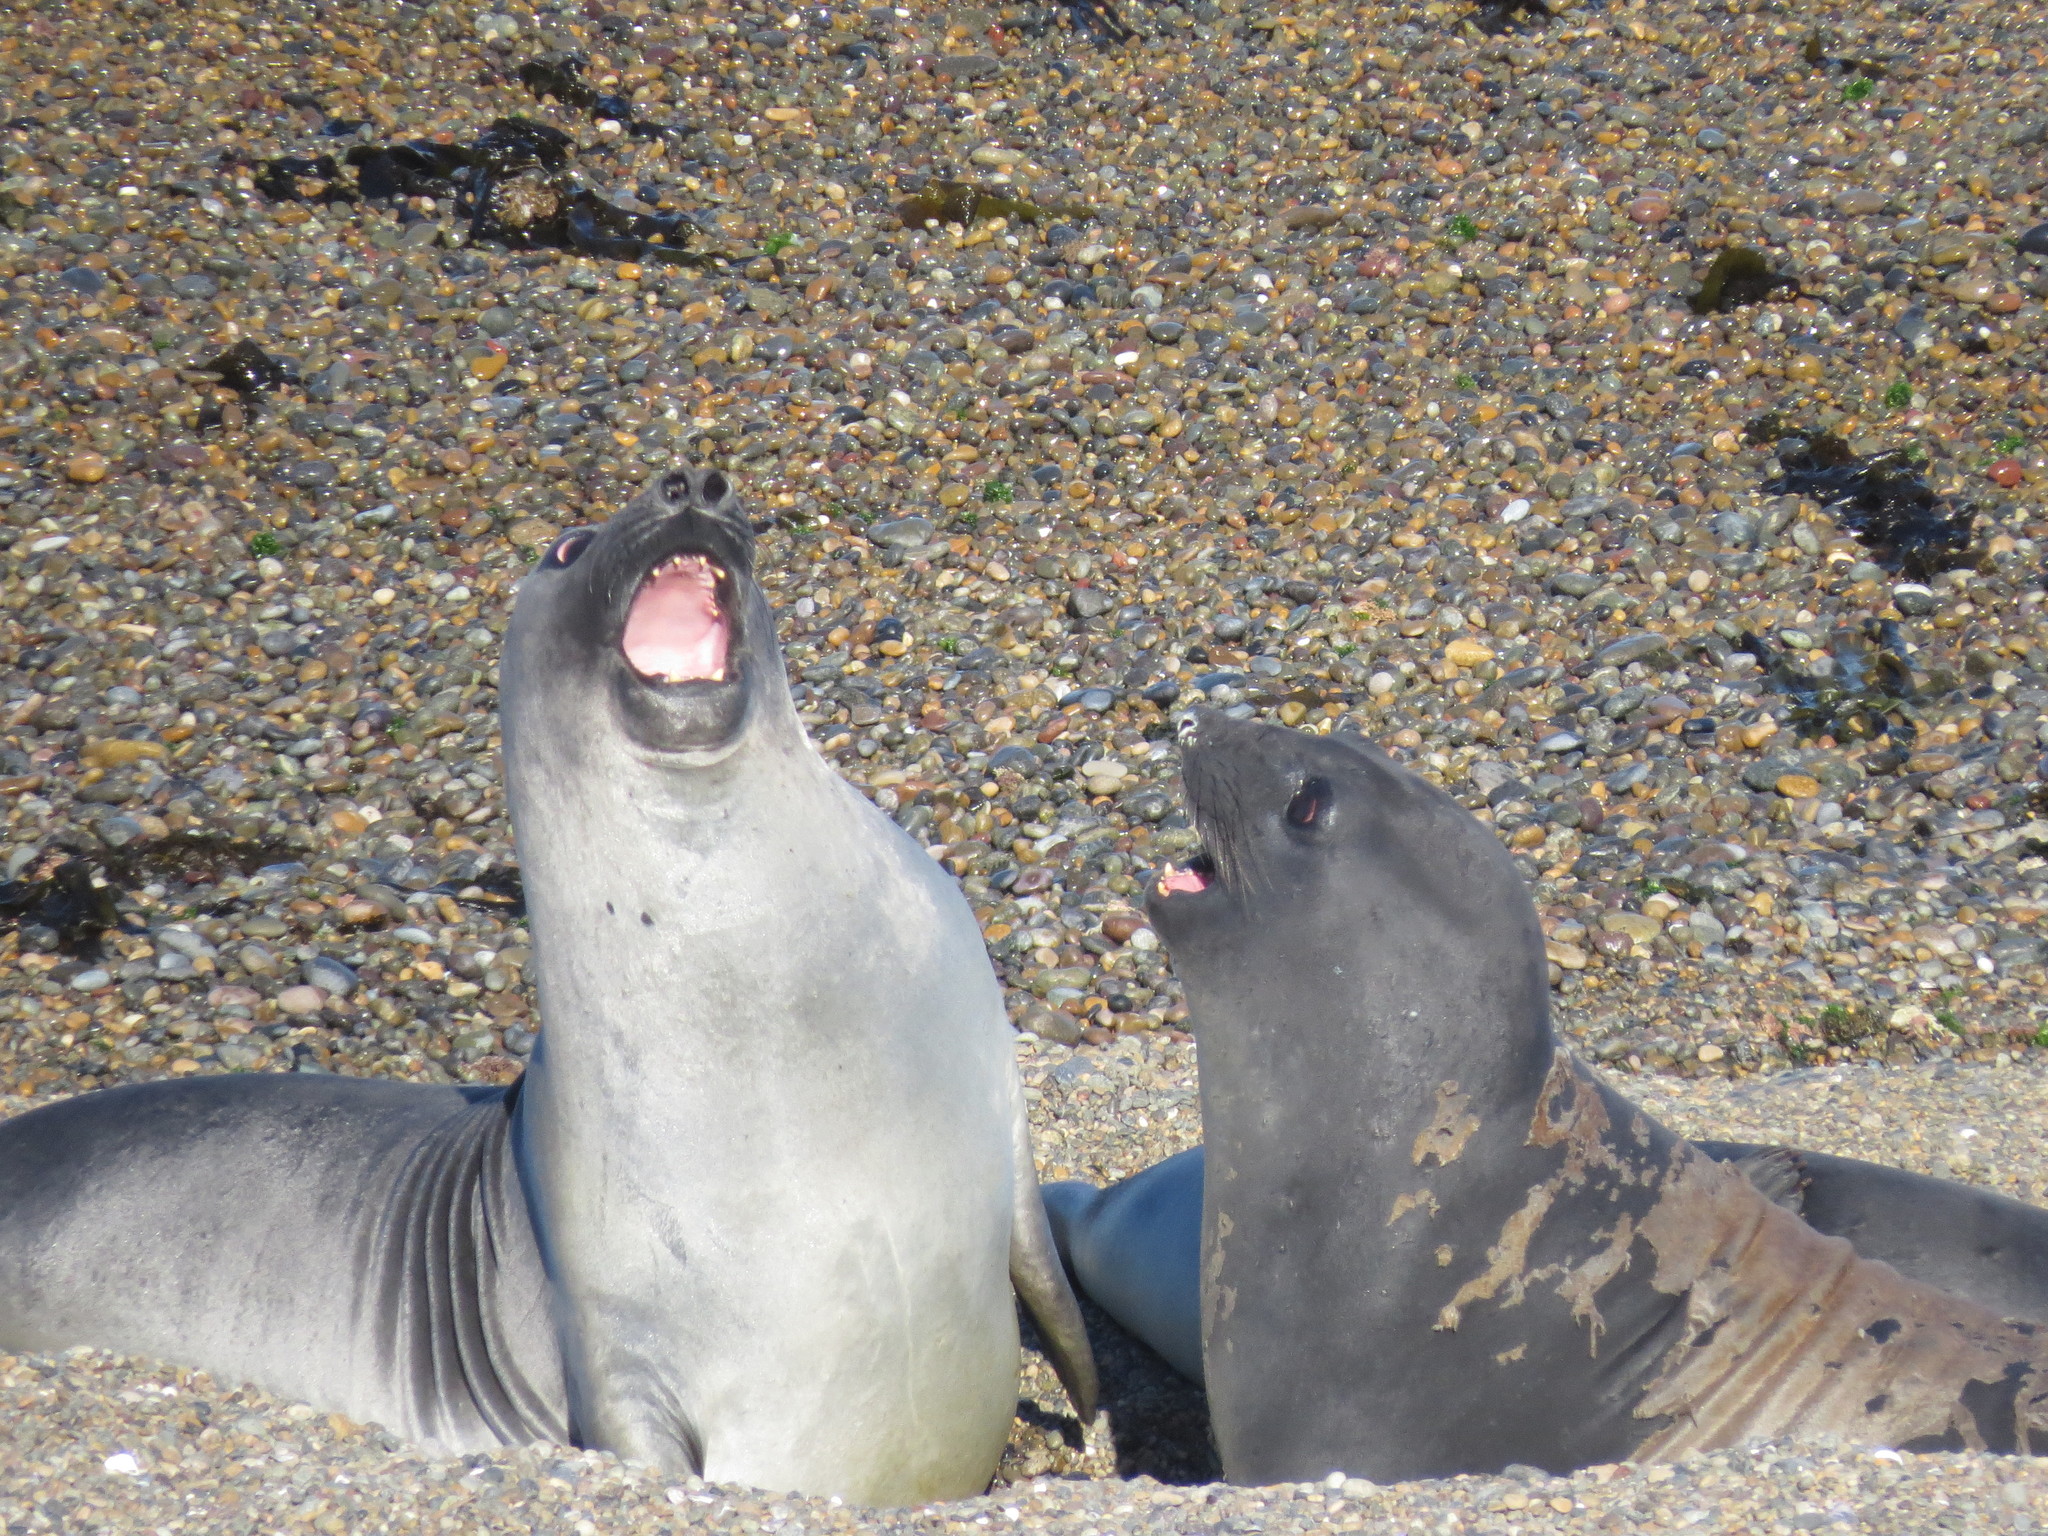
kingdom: Animalia
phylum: Chordata
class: Mammalia
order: Carnivora
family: Phocidae
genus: Mirounga
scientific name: Mirounga leonina
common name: Southern elephant seal
